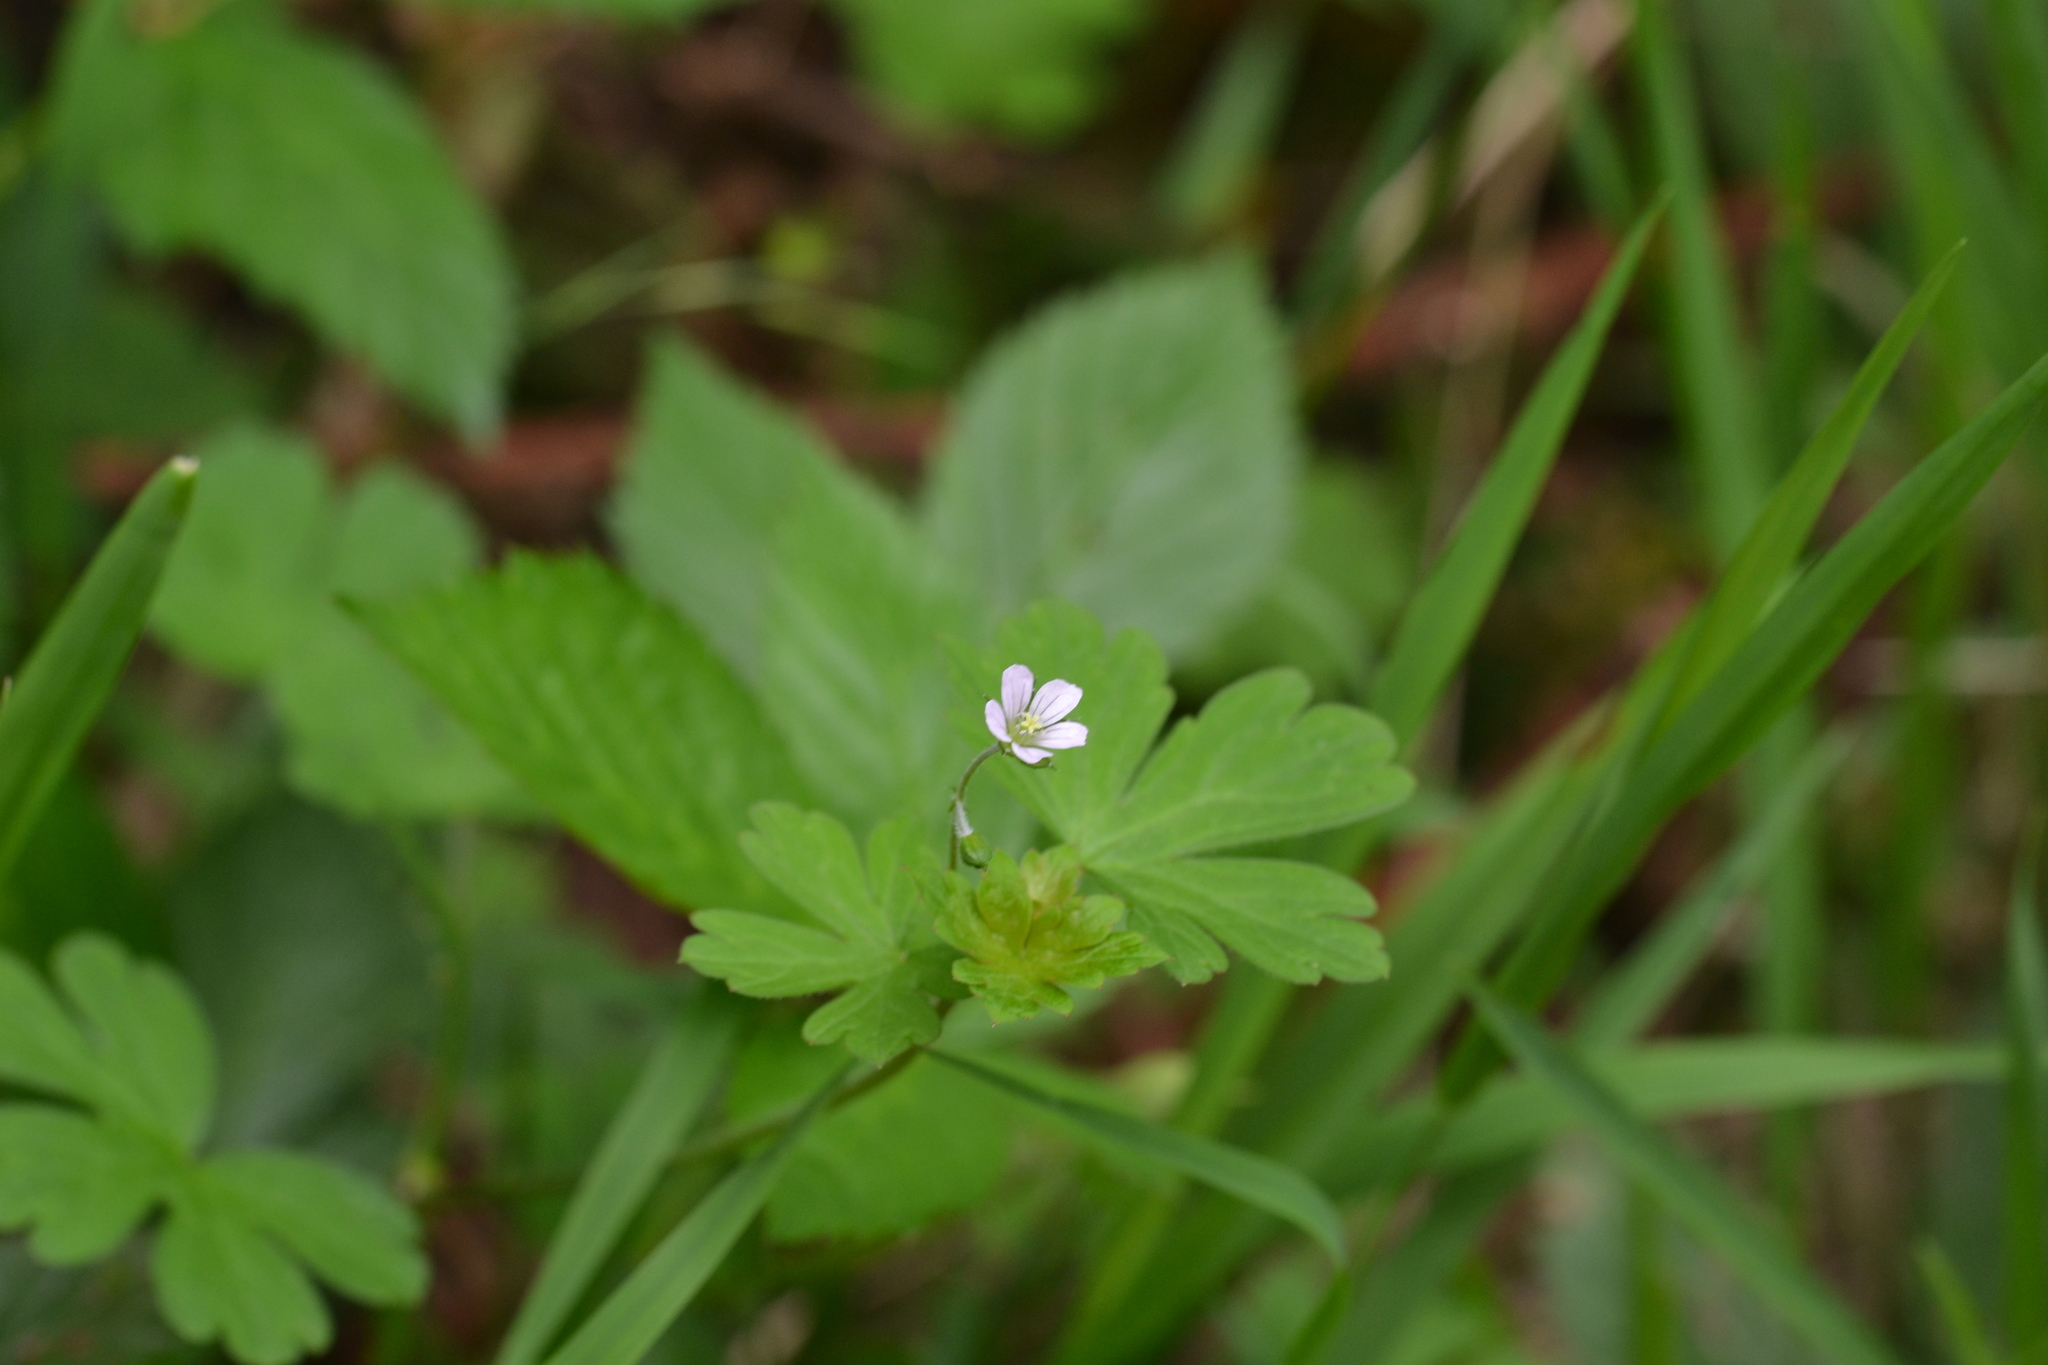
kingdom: Plantae
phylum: Tracheophyta
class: Magnoliopsida
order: Geraniales
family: Geraniaceae
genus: Geranium
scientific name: Geranium homeanum
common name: Australasian geranium
